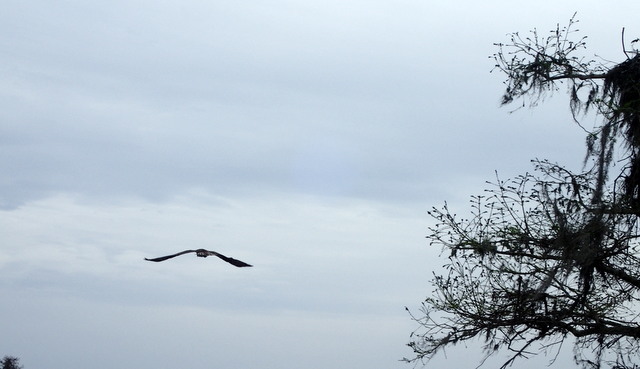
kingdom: Animalia
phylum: Chordata
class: Aves
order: Accipitriformes
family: Pandionidae
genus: Pandion
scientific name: Pandion haliaetus
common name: Osprey
